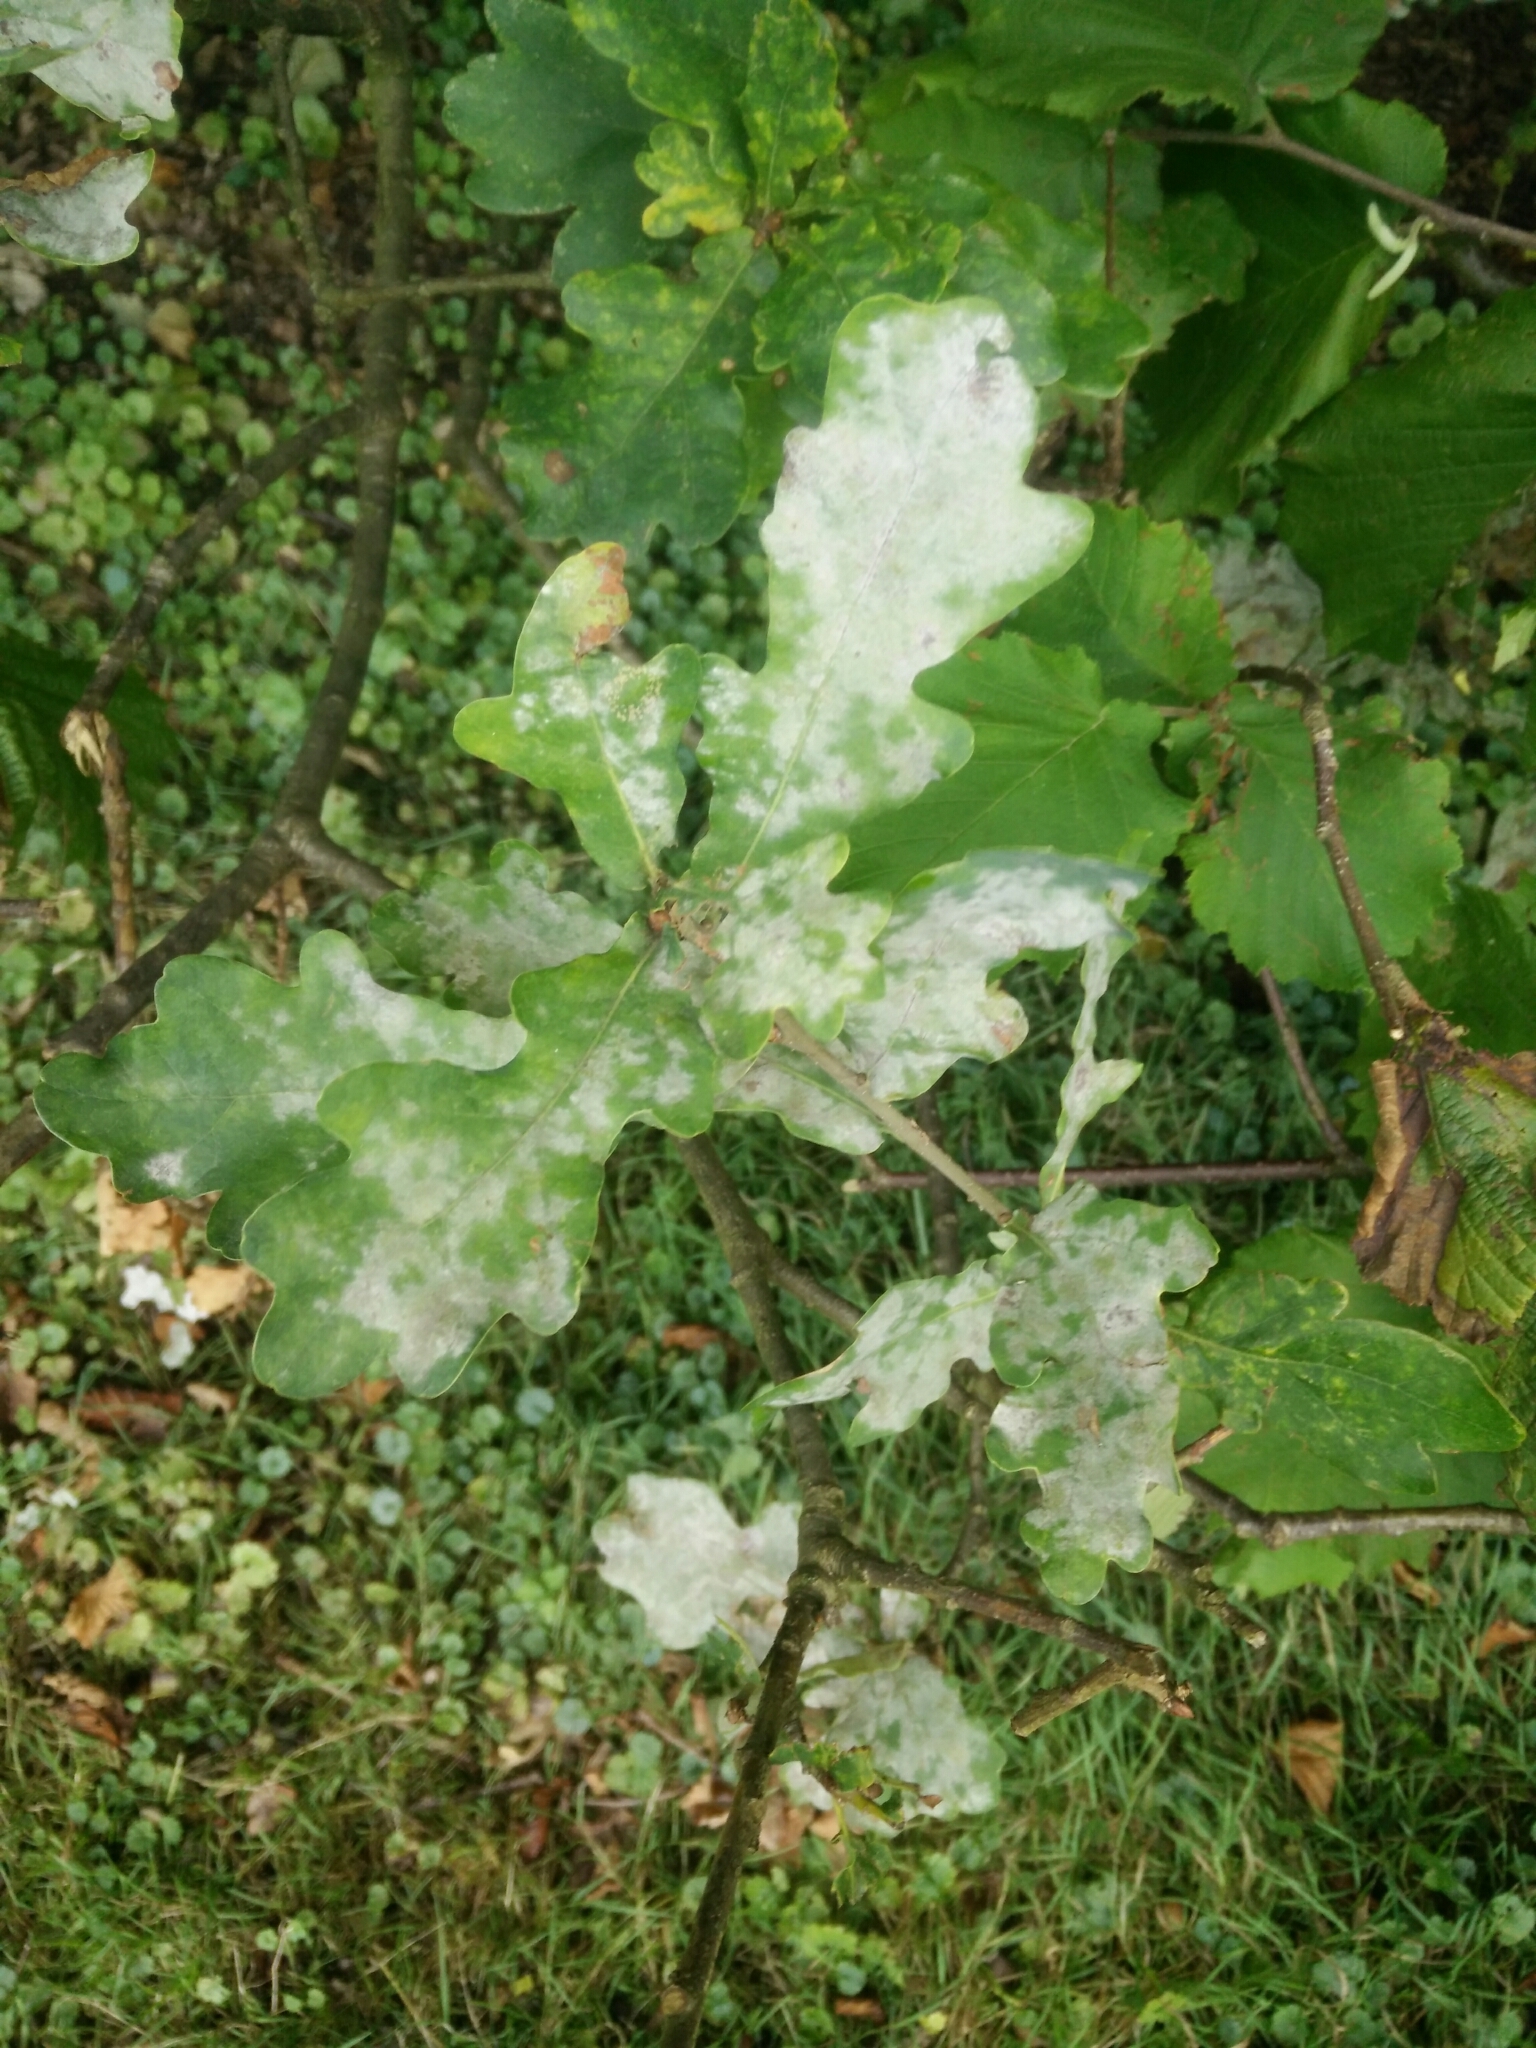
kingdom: Fungi
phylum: Ascomycota
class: Leotiomycetes
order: Helotiales
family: Erysiphaceae
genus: Erysiphe
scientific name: Erysiphe
